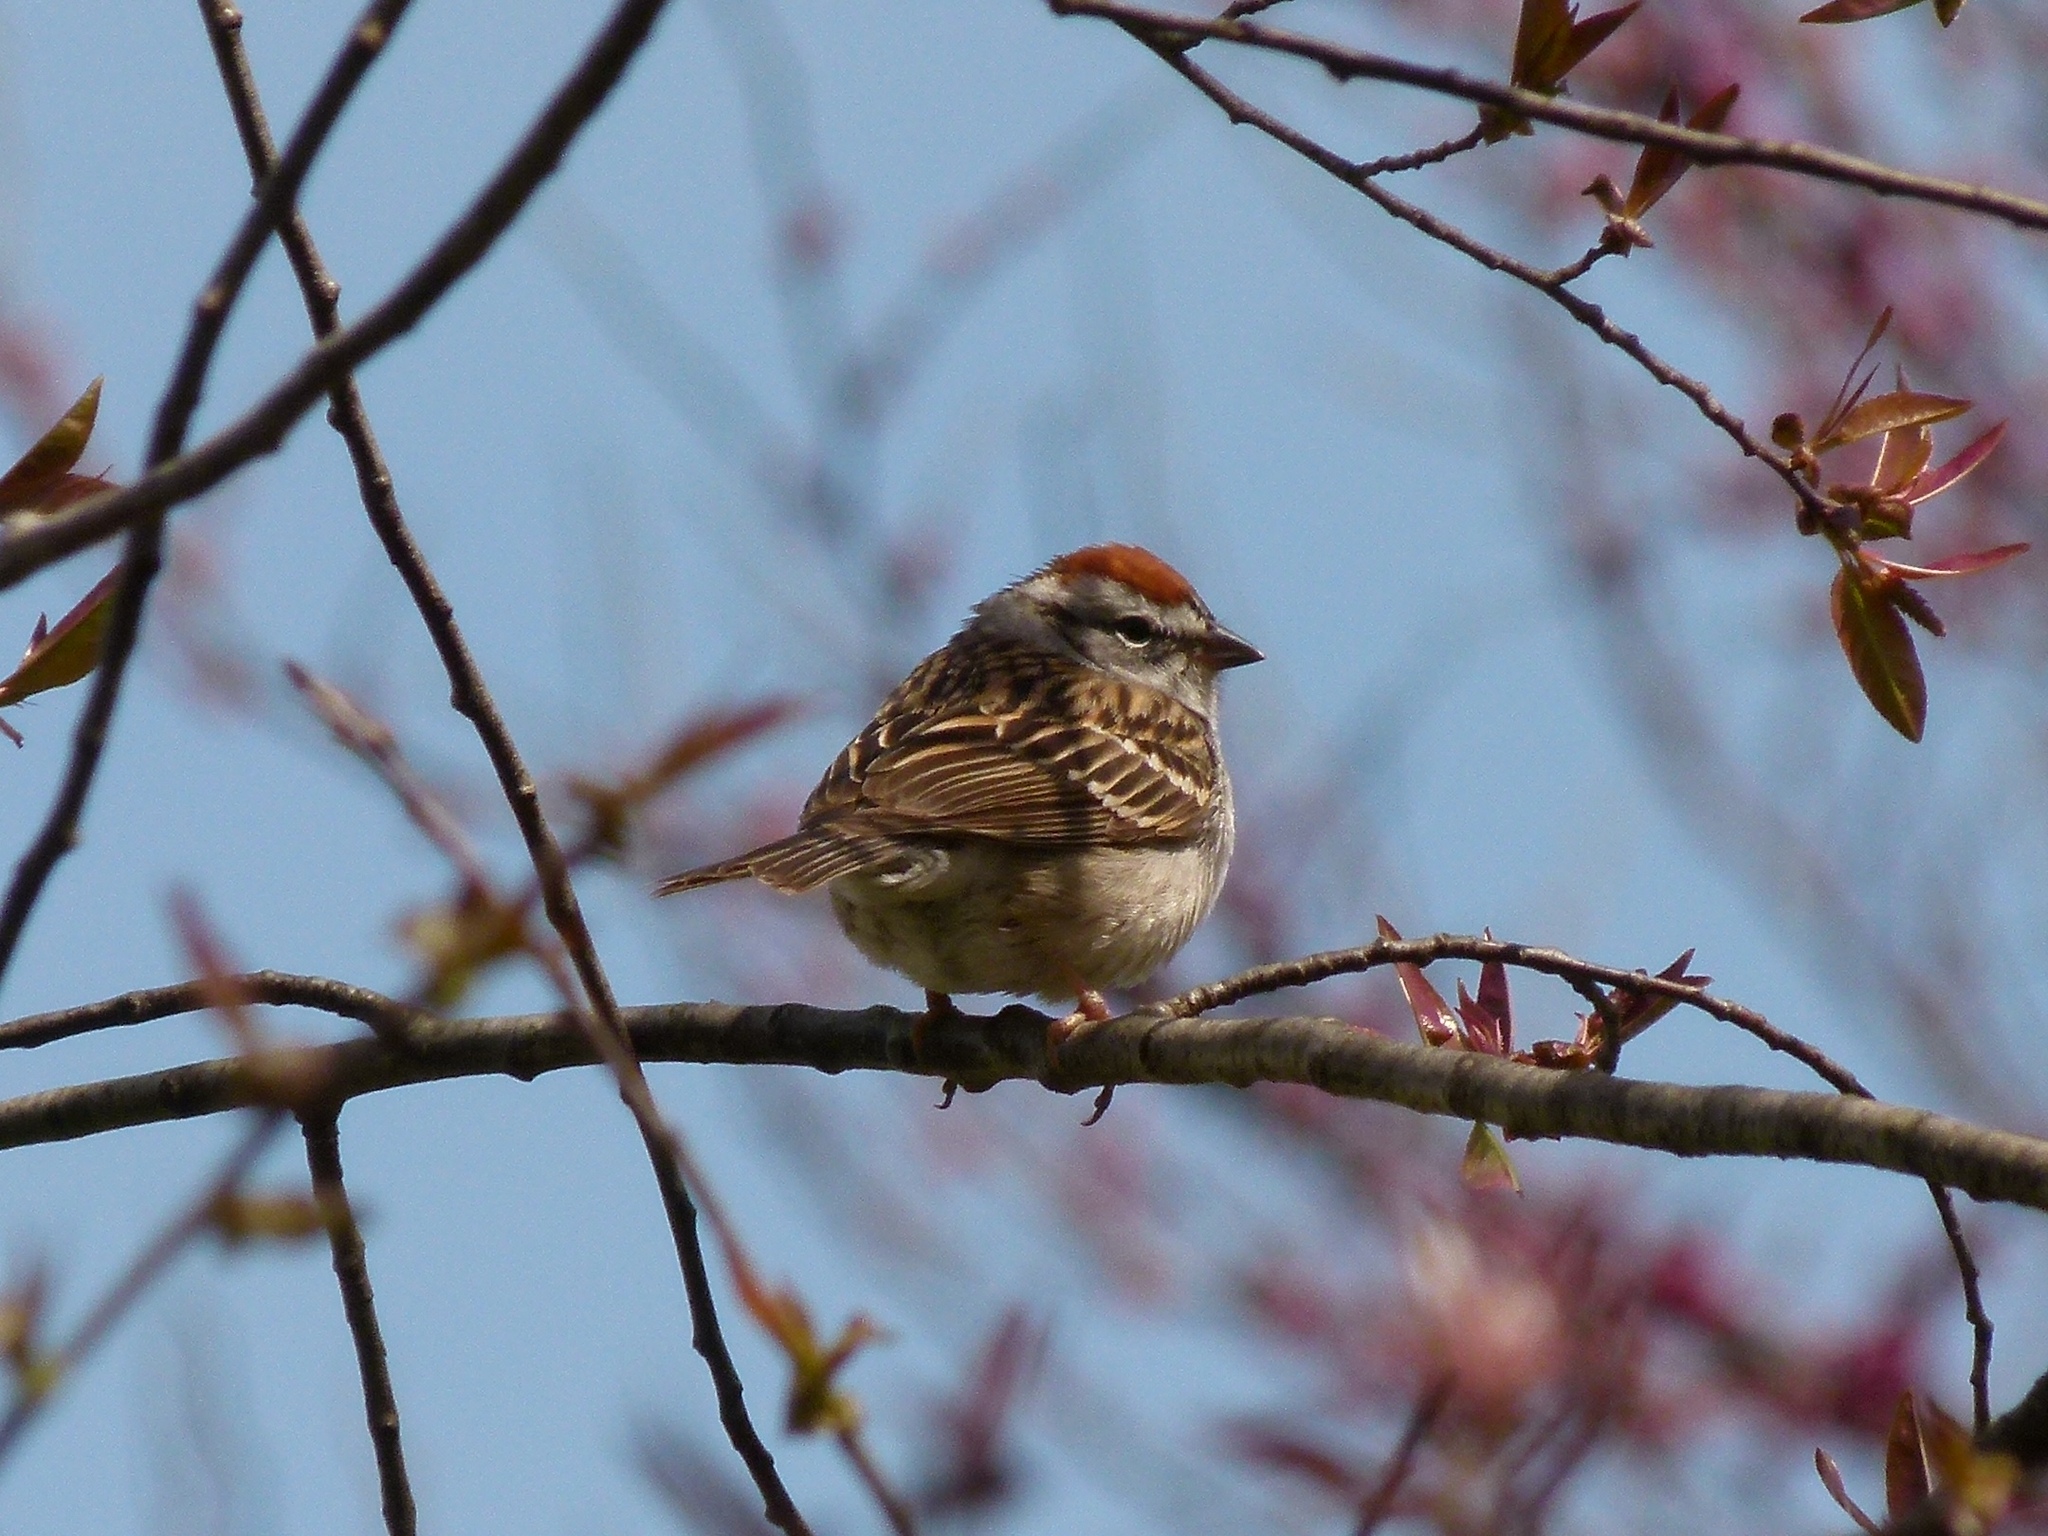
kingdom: Animalia
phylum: Chordata
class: Aves
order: Passeriformes
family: Passerellidae
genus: Spizella
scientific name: Spizella passerina
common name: Chipping sparrow
